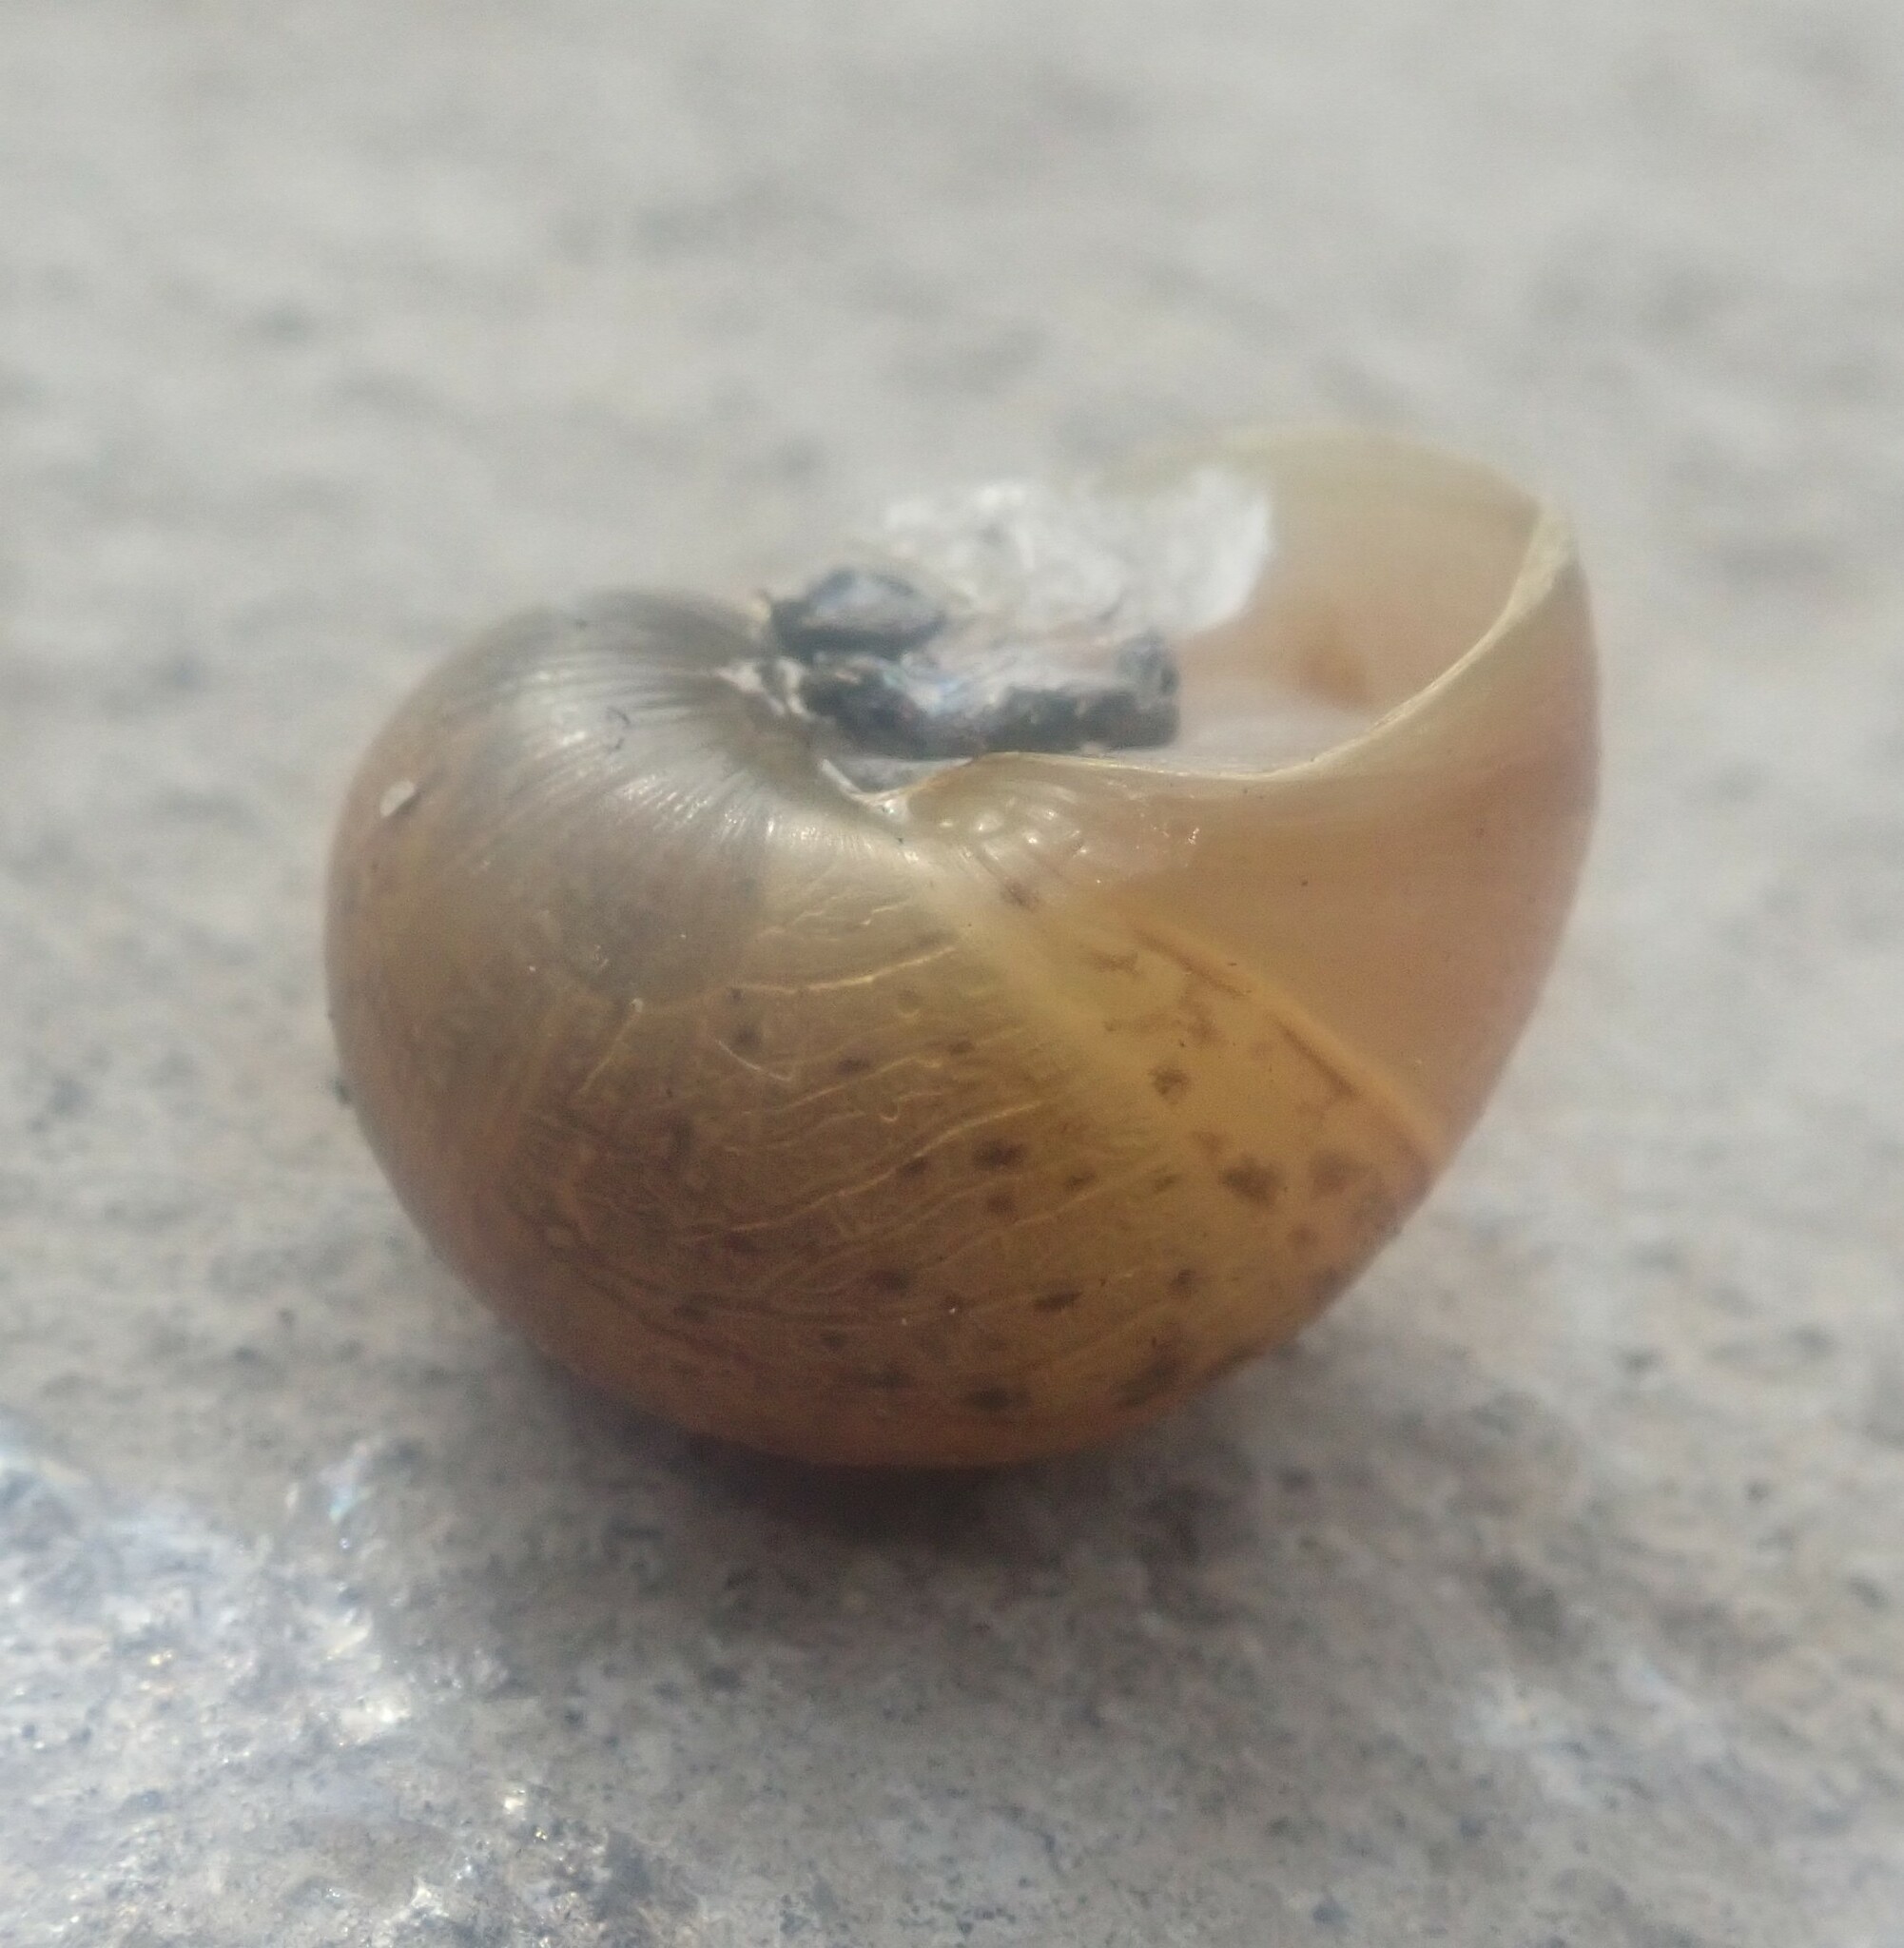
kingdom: Animalia
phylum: Mollusca
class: Gastropoda
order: Stylommatophora
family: Helicidae
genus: Cornu
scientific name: Cornu aspersum
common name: Brown garden snail
